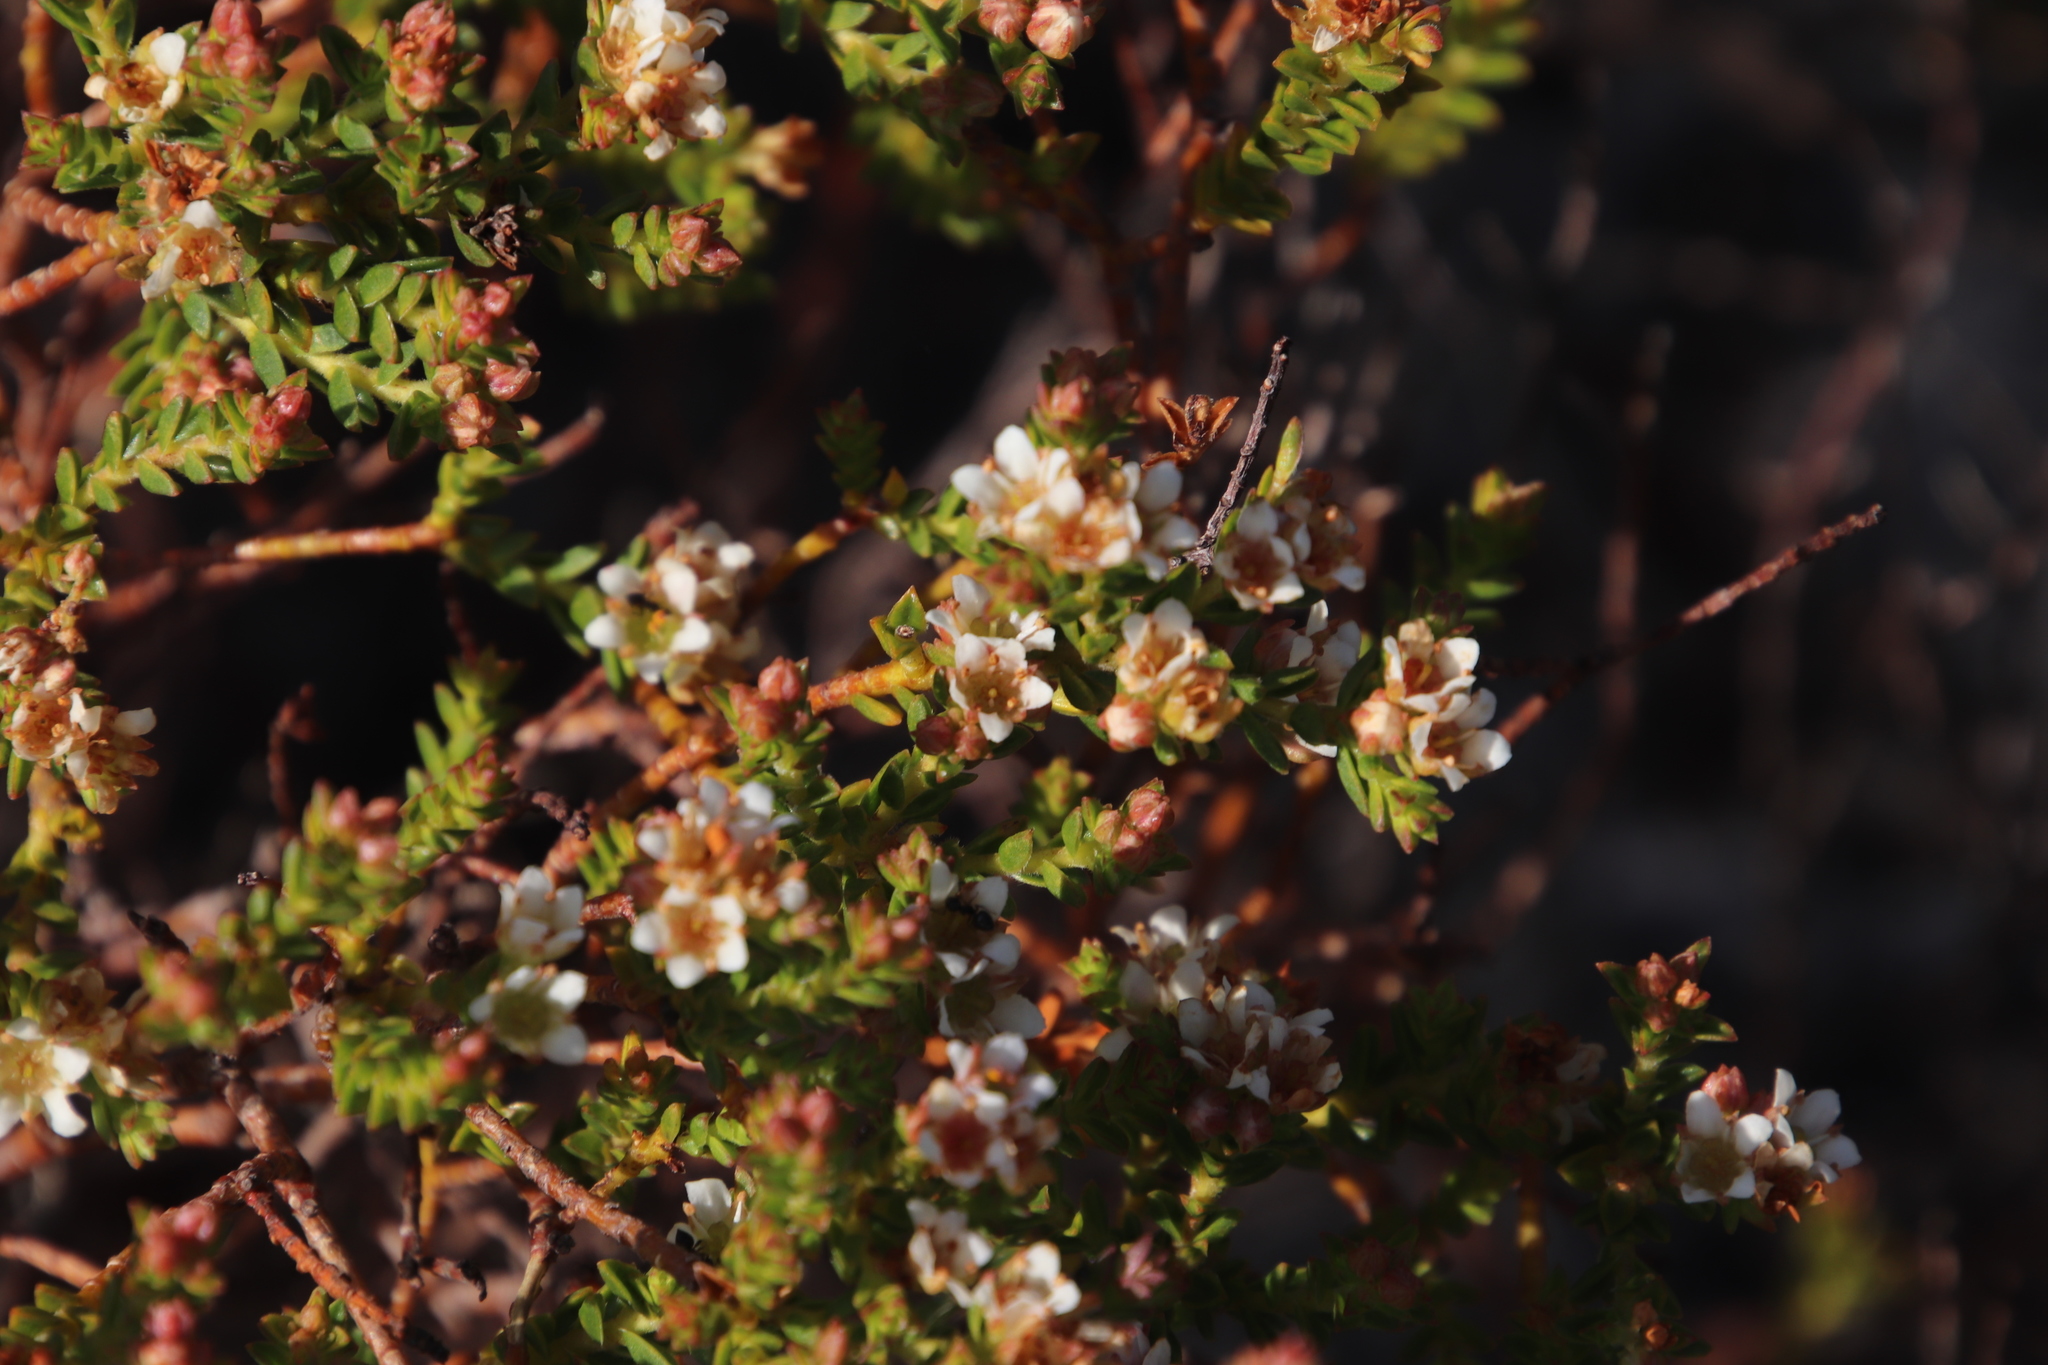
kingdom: Plantae
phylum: Tracheophyta
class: Magnoliopsida
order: Sapindales
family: Rutaceae
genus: Diosma
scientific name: Diosma oppositifolia
